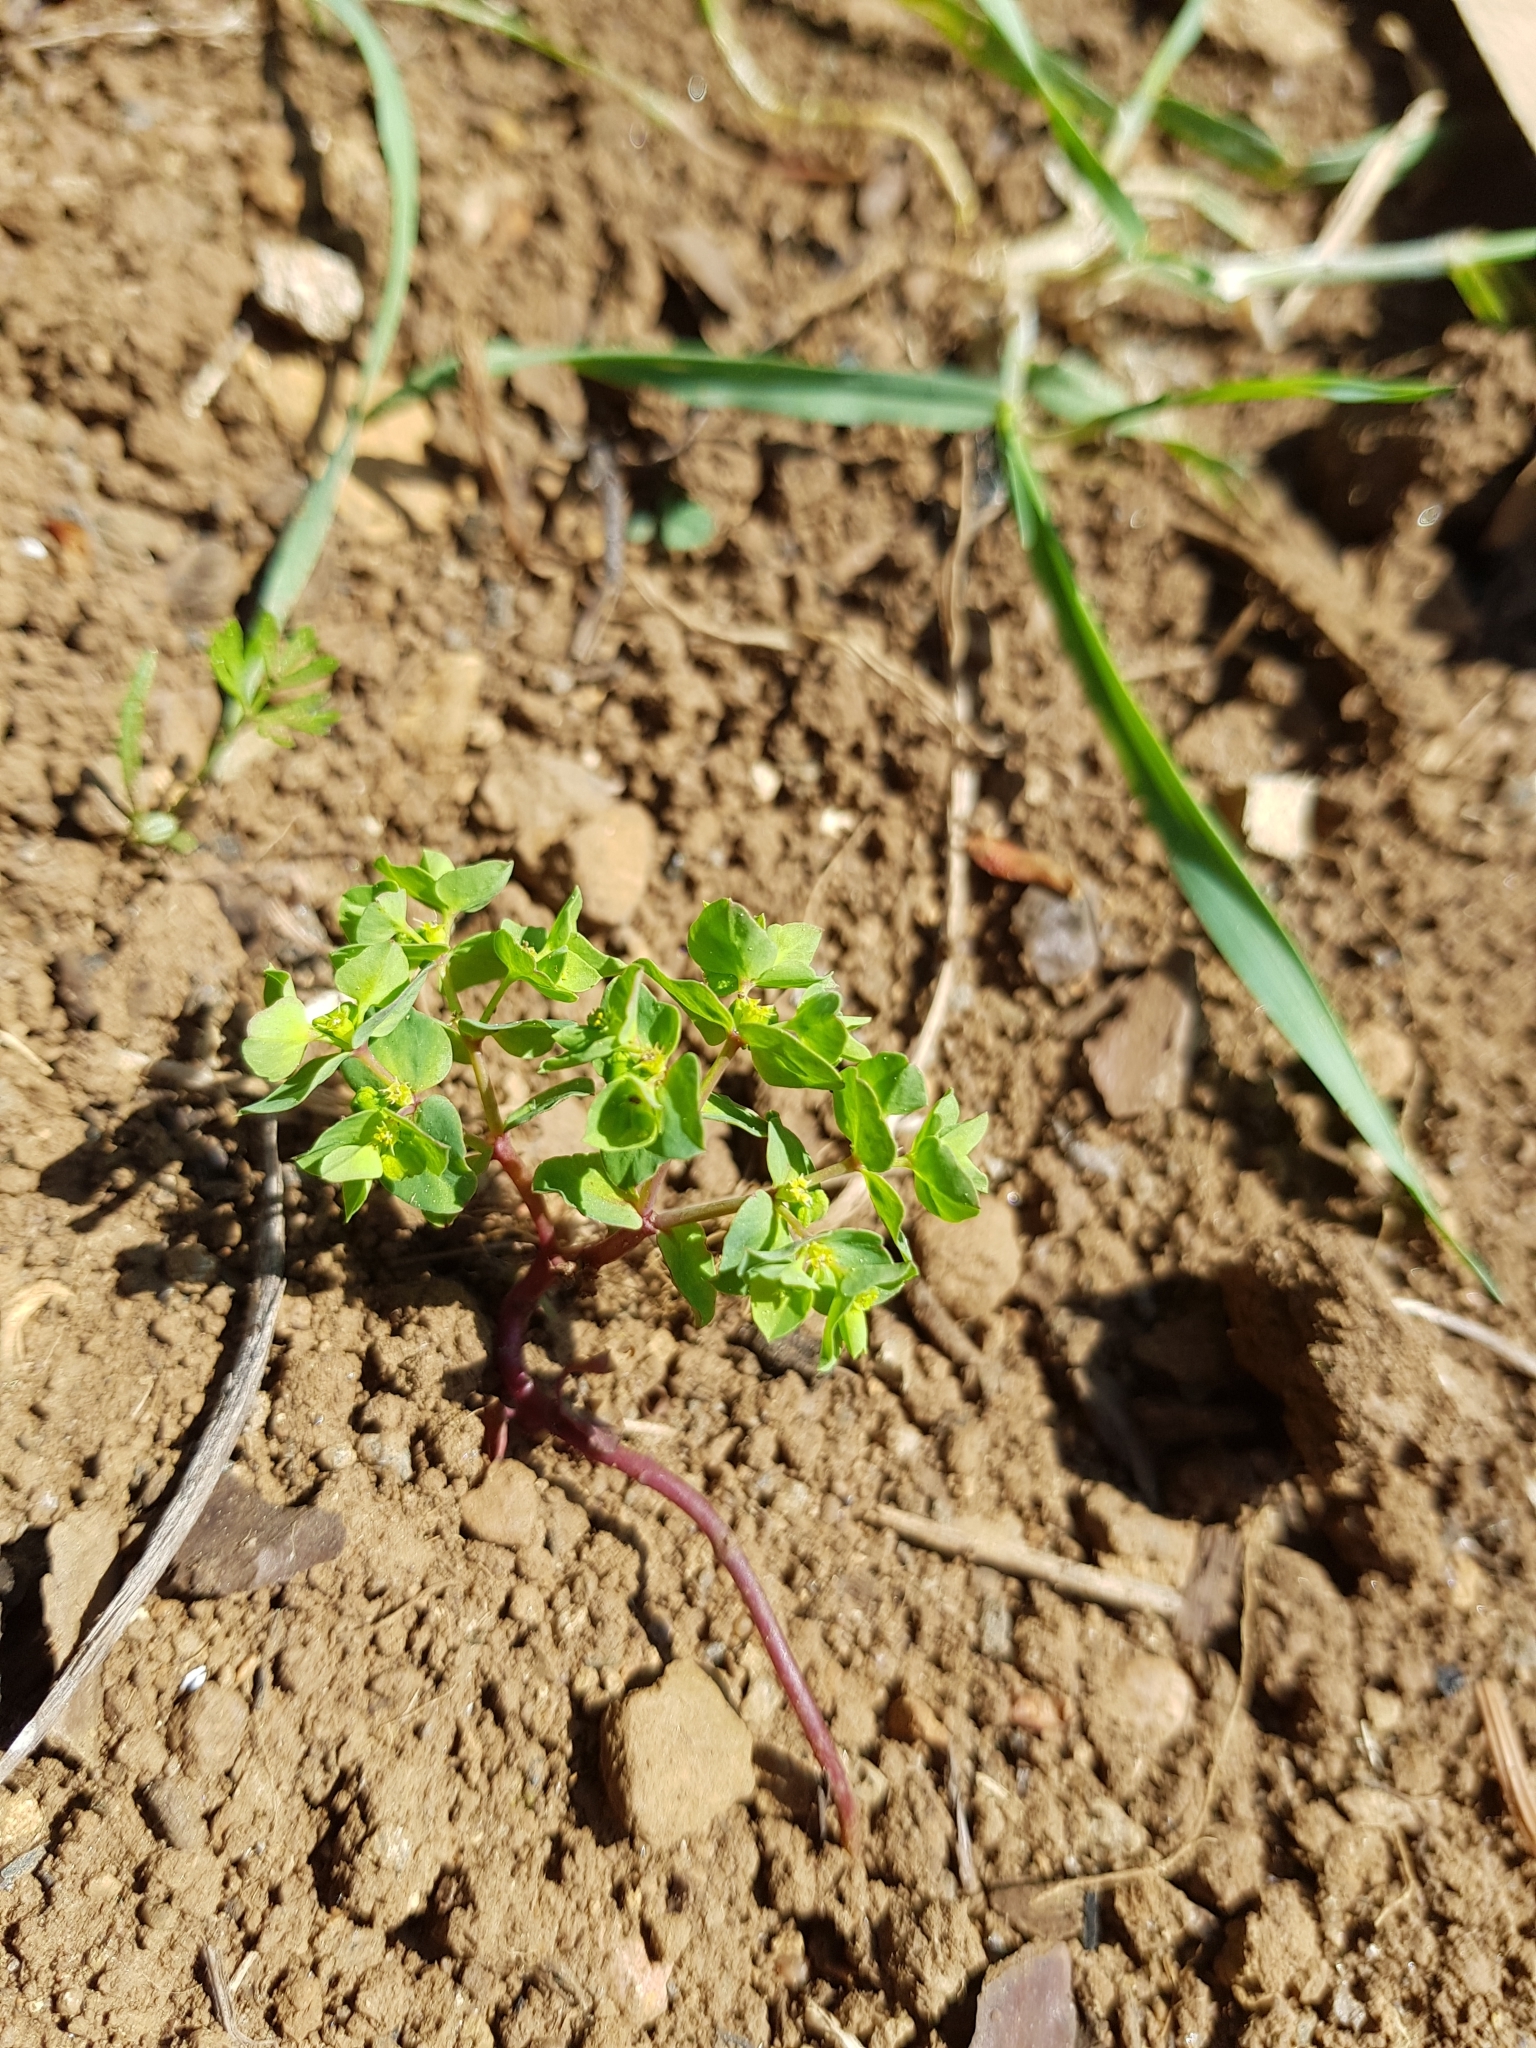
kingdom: Plantae
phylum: Tracheophyta
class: Magnoliopsida
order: Malpighiales
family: Euphorbiaceae
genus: Euphorbia
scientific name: Euphorbia peplus
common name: Petty spurge
